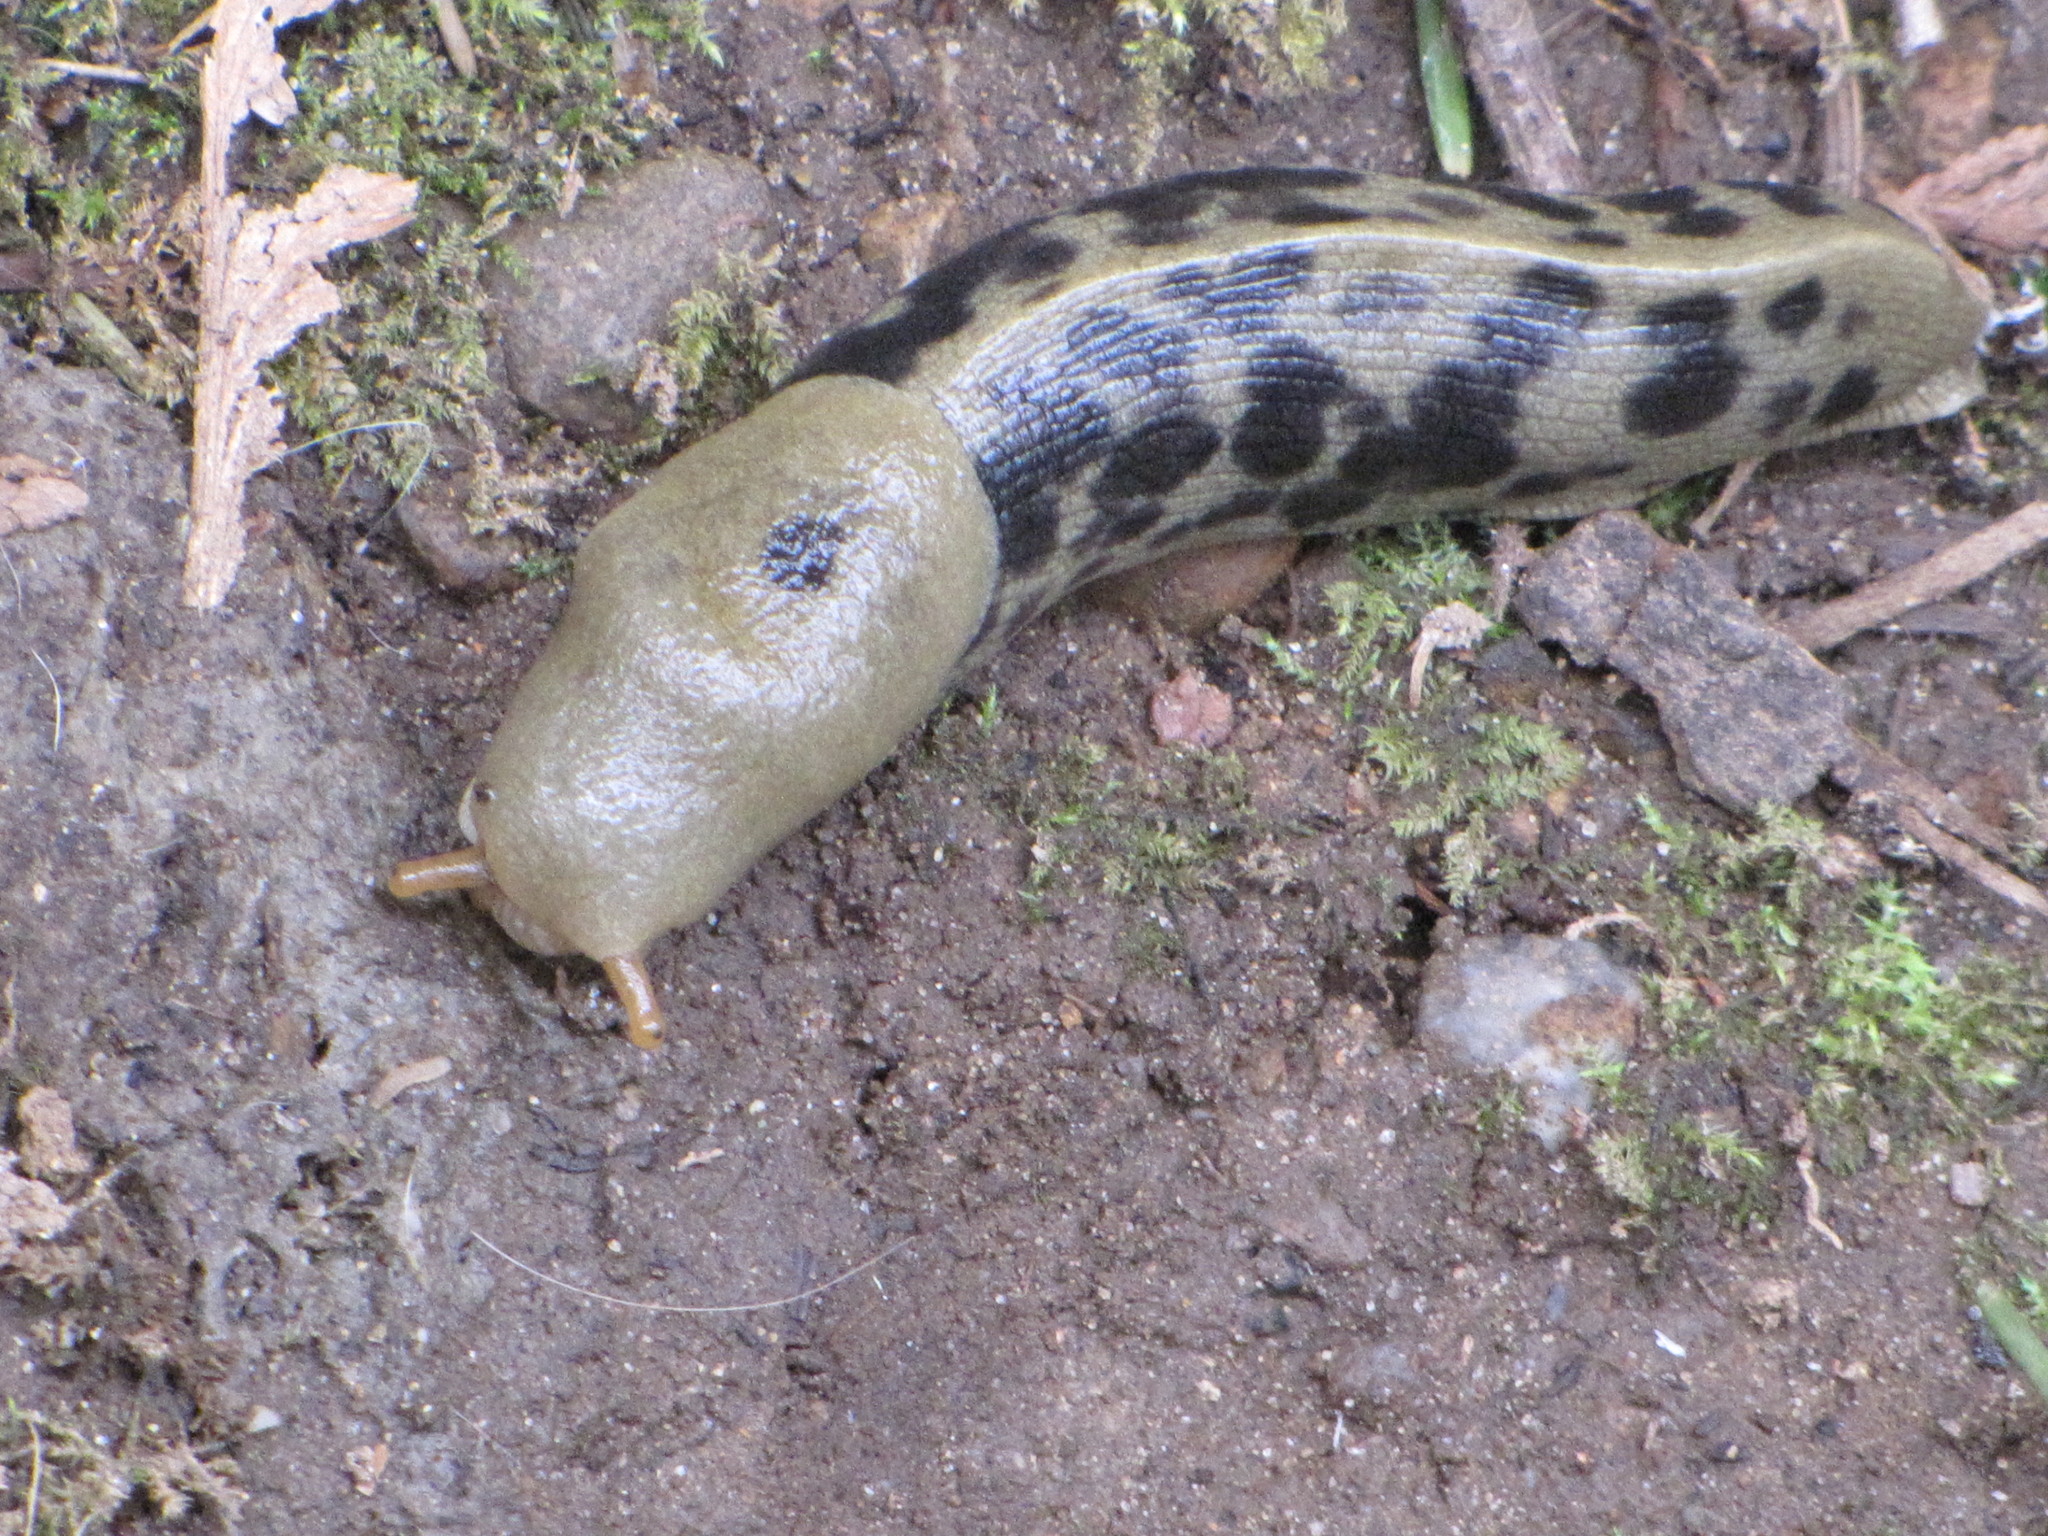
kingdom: Animalia
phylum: Mollusca
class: Gastropoda
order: Stylommatophora
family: Ariolimacidae
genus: Ariolimax
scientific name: Ariolimax columbianus
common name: Pacific banana slug
